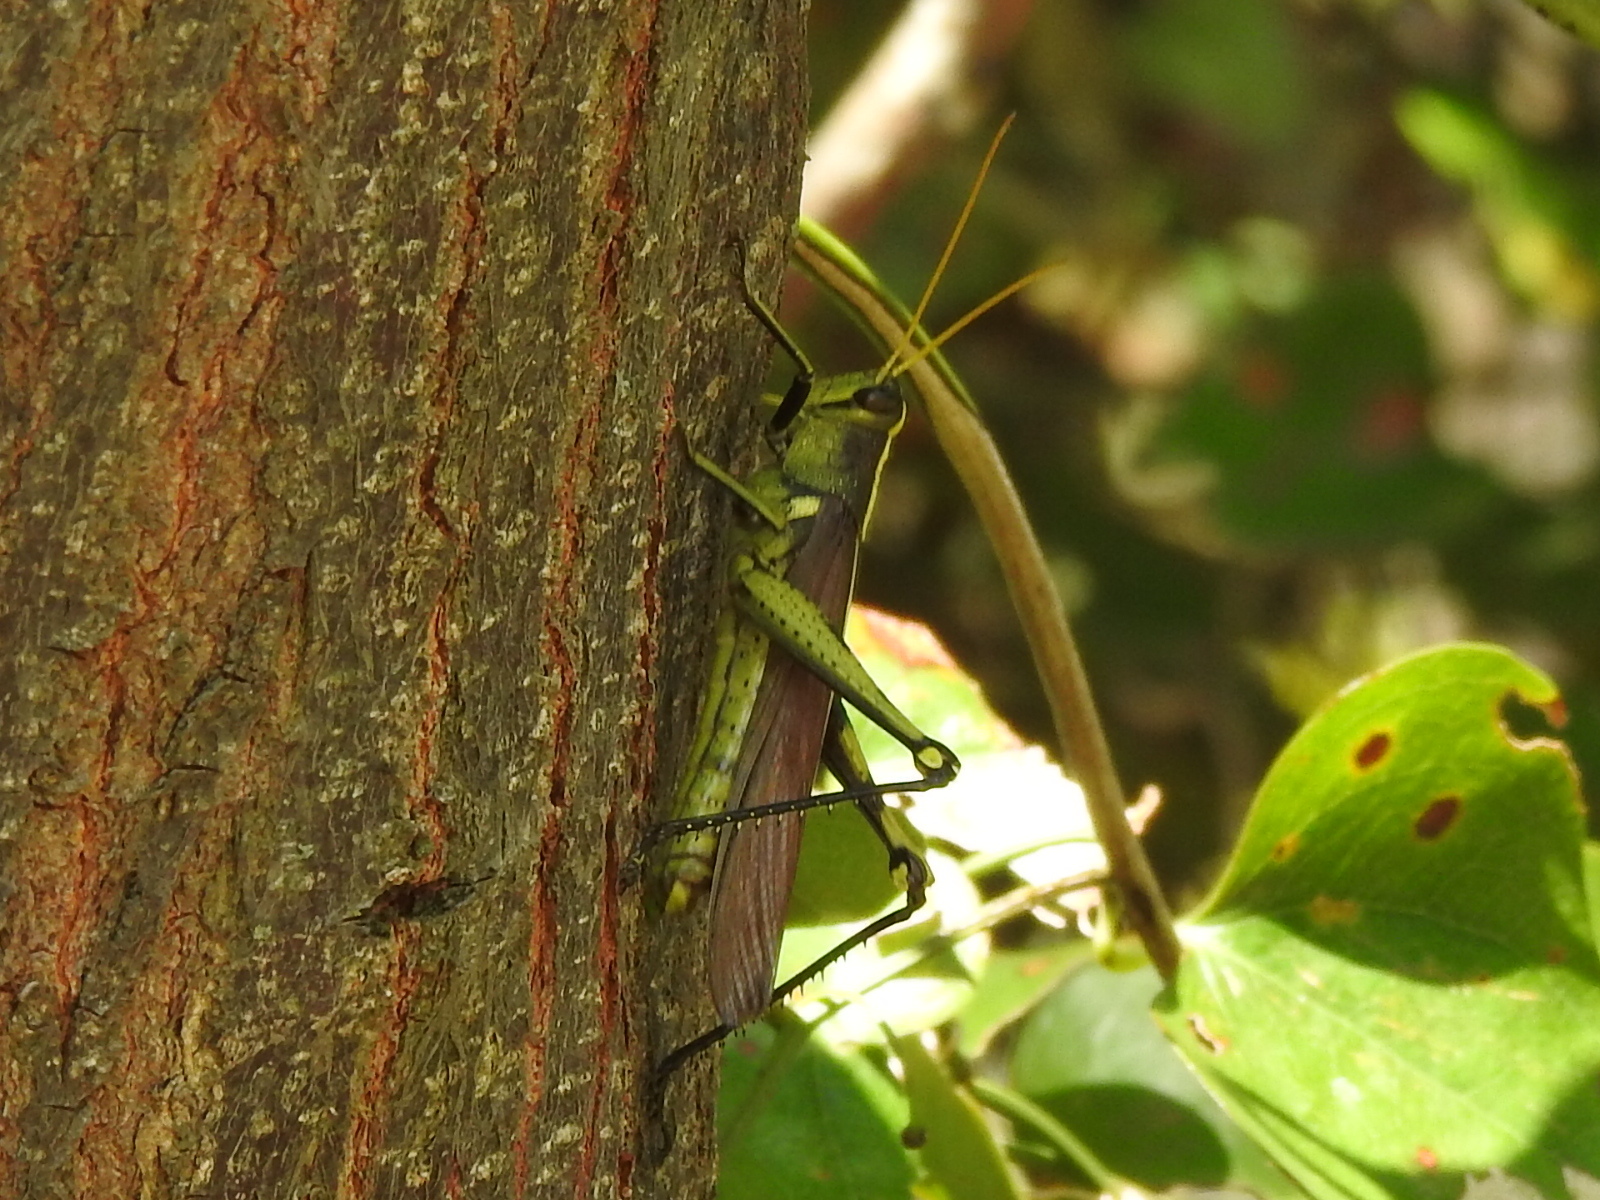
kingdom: Animalia
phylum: Arthropoda
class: Insecta
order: Orthoptera
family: Acrididae
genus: Schistocerca
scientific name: Schistocerca obscura
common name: Obscure bird grasshopper
